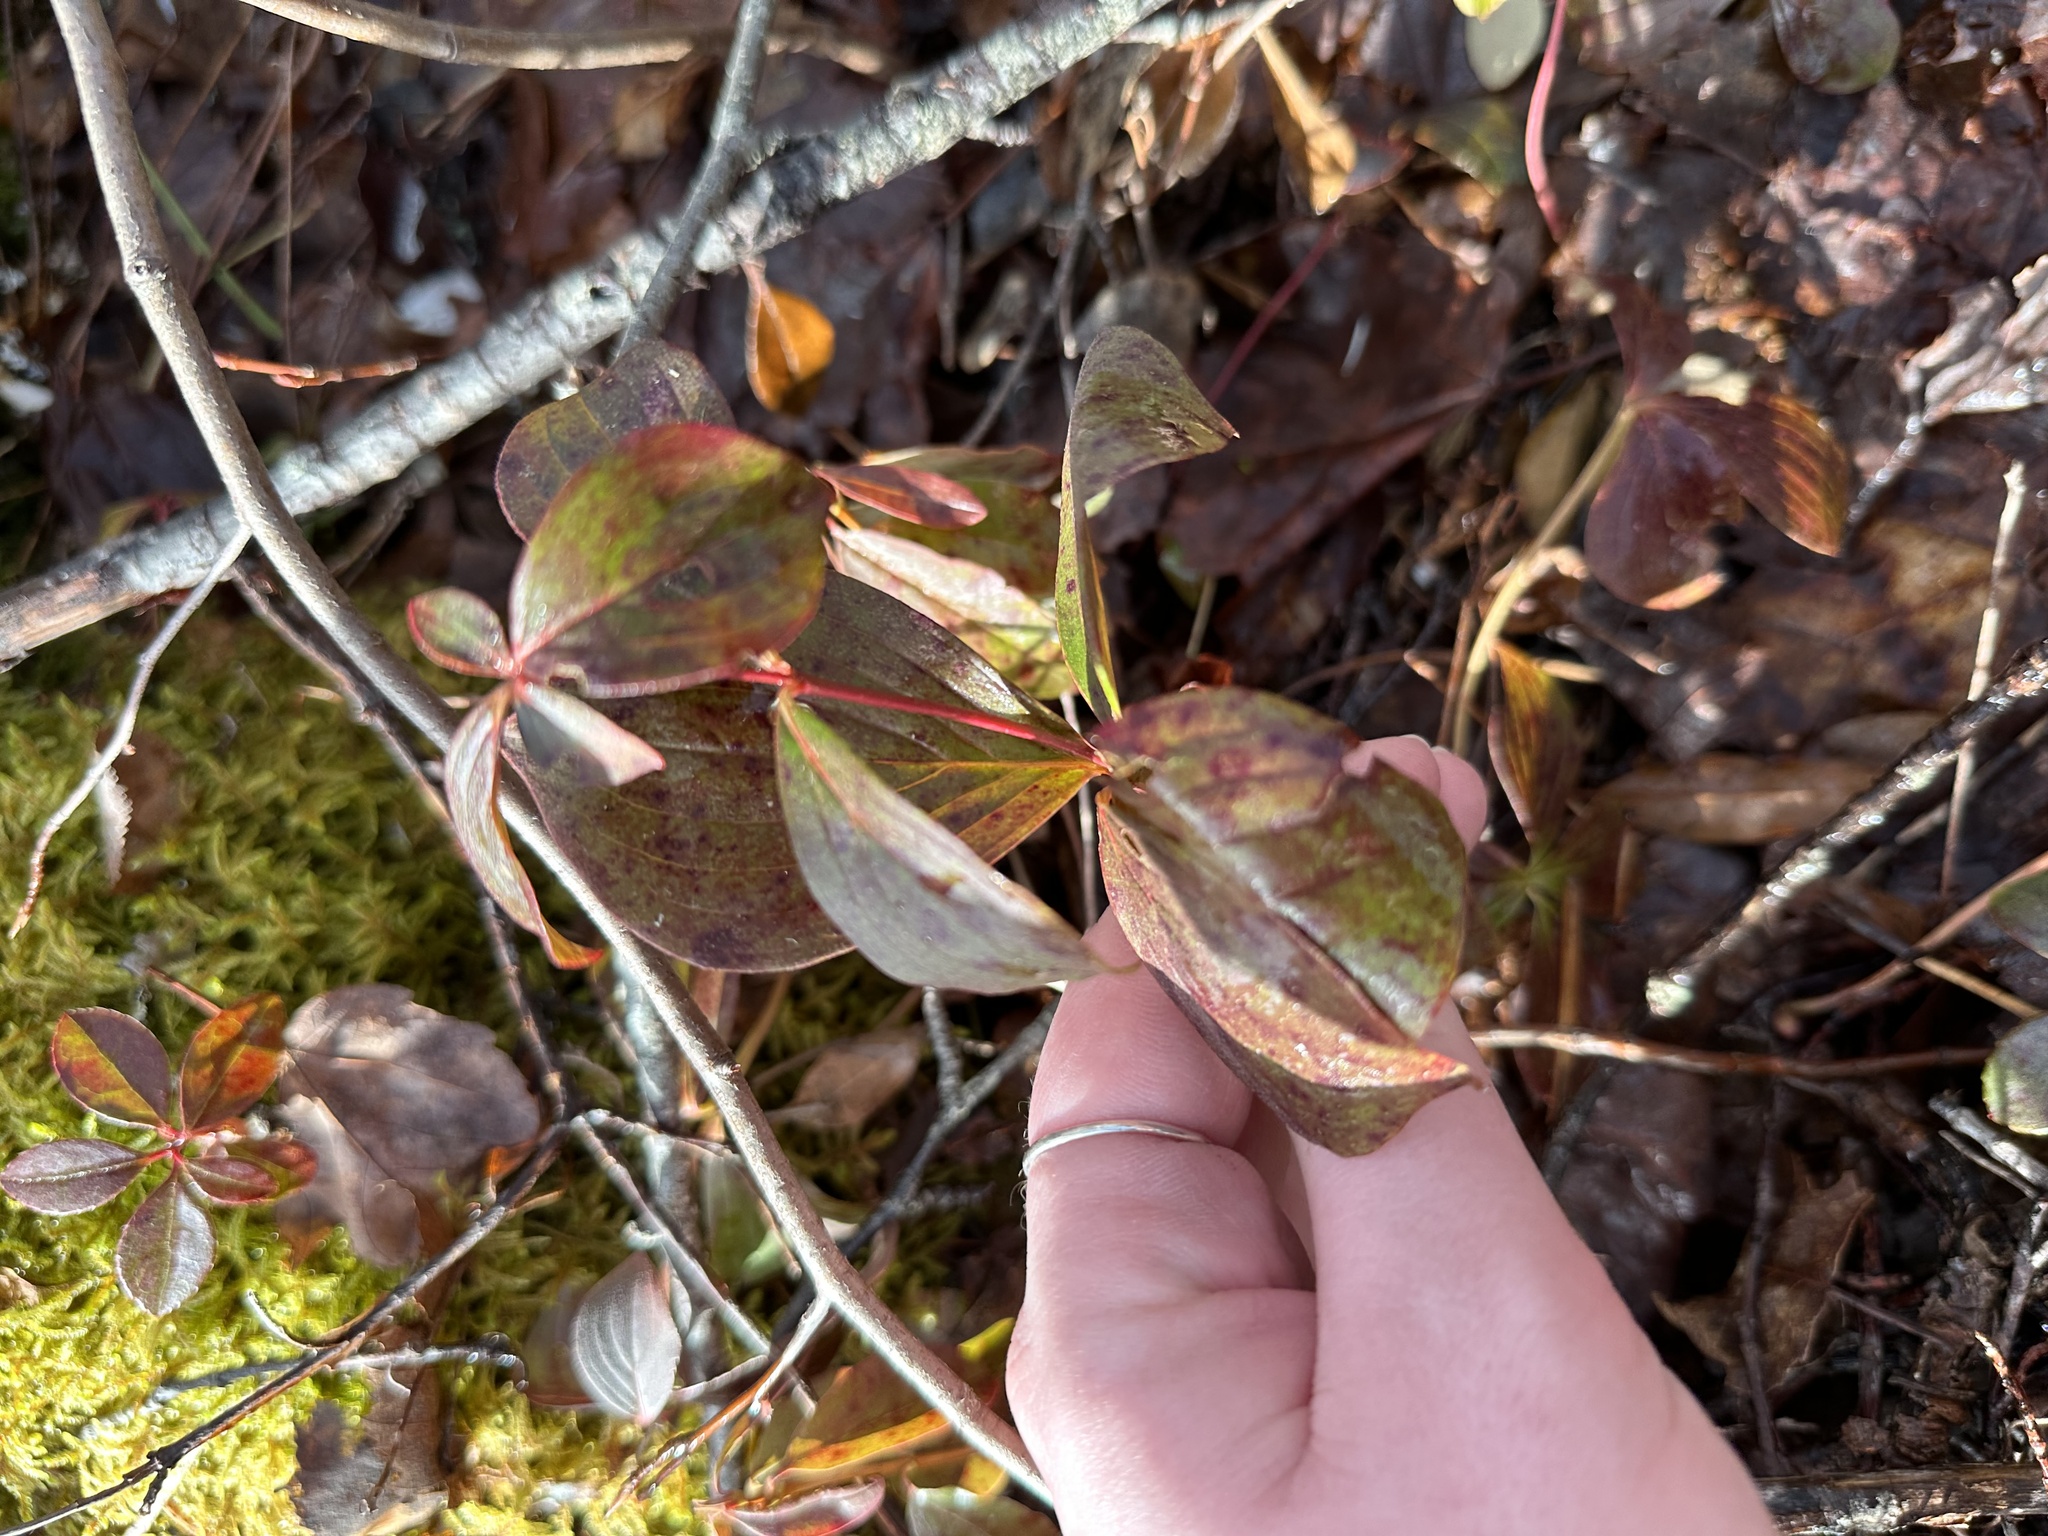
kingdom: Plantae
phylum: Tracheophyta
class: Magnoliopsida
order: Cornales
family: Cornaceae
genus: Cornus
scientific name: Cornus canadensis
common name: Creeping dogwood
